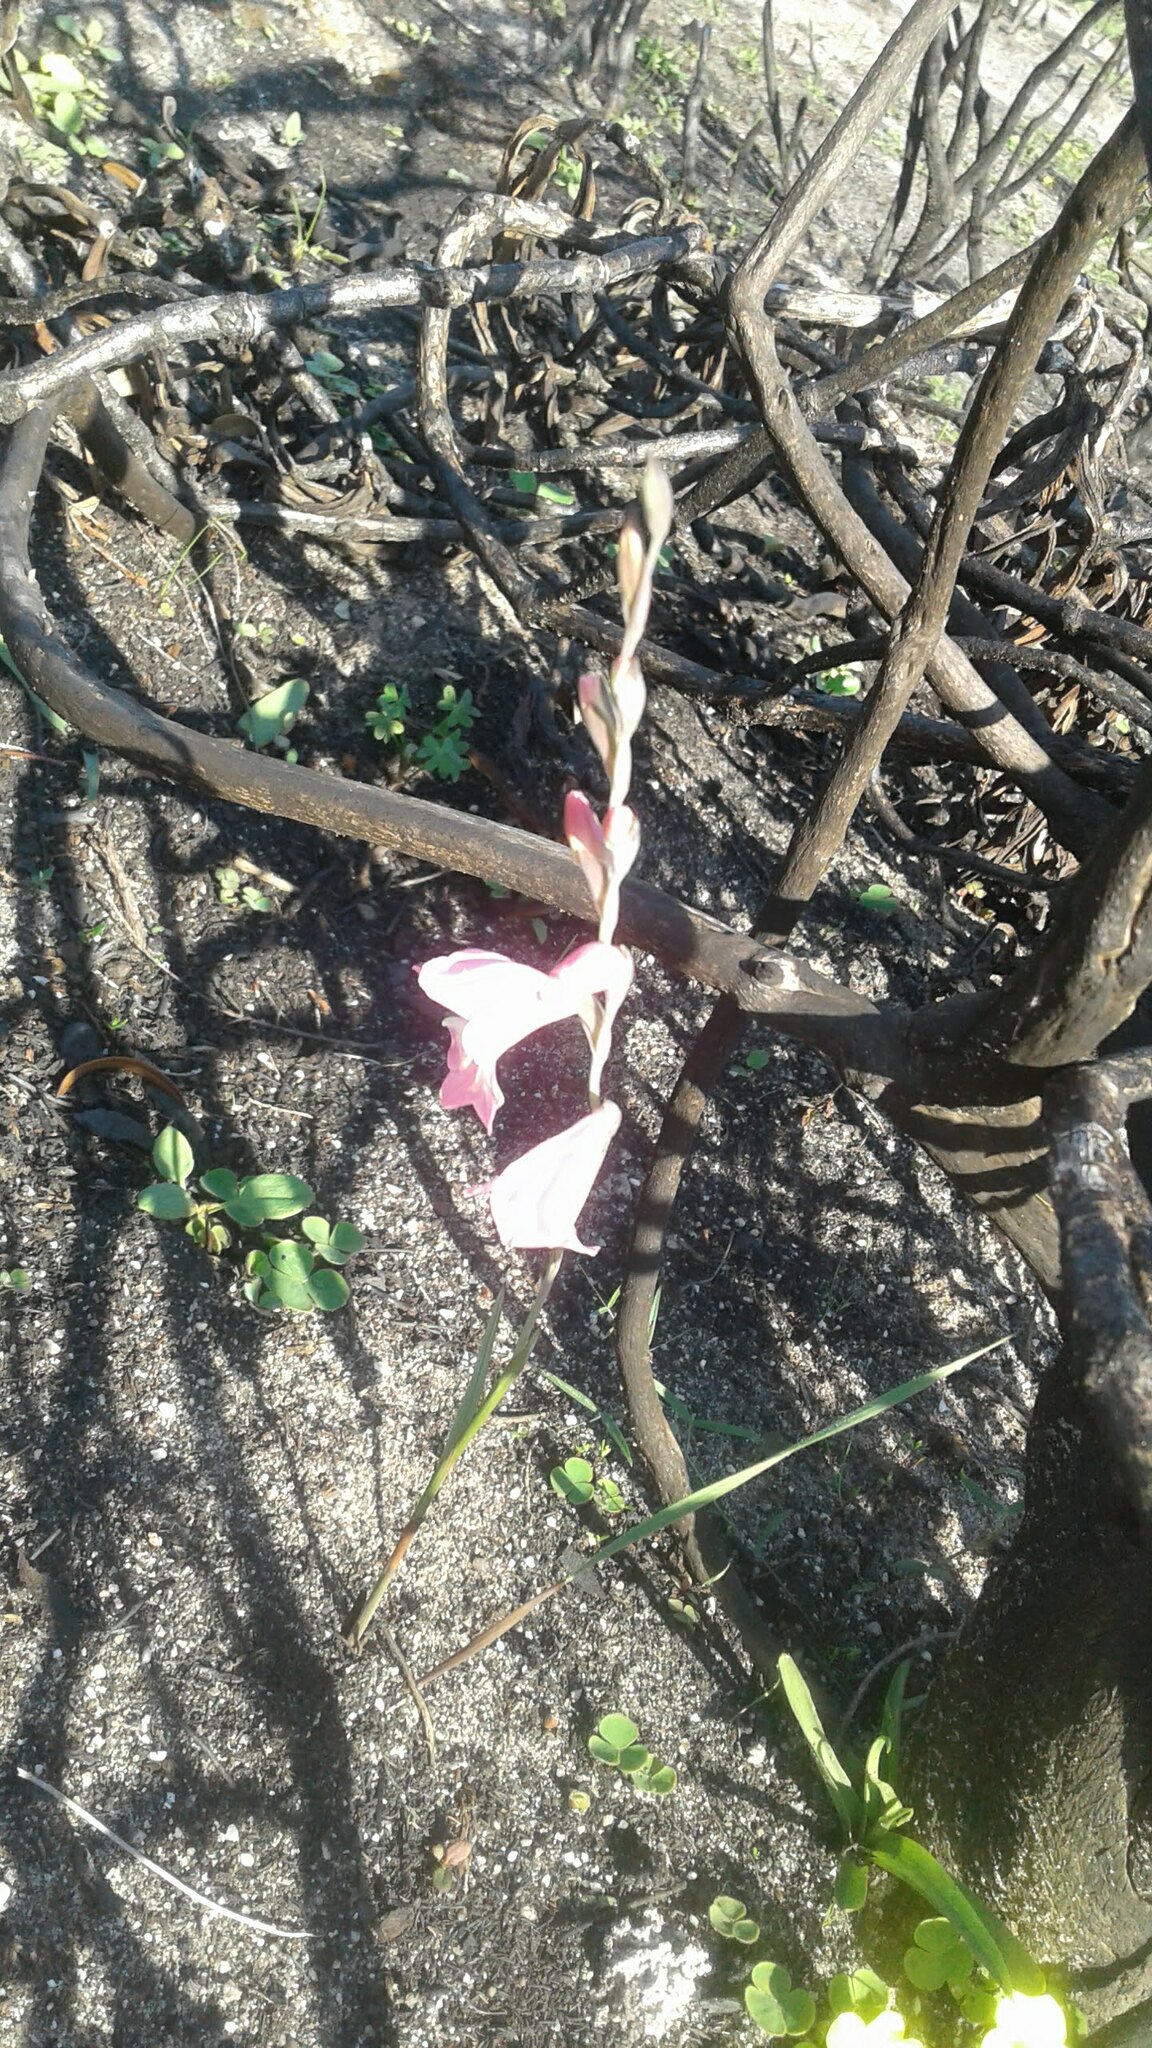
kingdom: Plantae
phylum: Tracheophyta
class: Liliopsida
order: Asparagales
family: Iridaceae
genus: Gladiolus
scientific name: Gladiolus brevifolius
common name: March pypie
